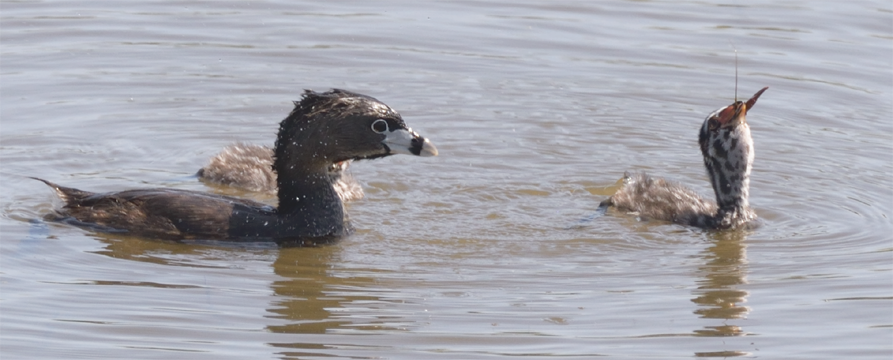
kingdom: Animalia
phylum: Chordata
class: Aves
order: Podicipediformes
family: Podicipedidae
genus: Podilymbus
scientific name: Podilymbus podiceps
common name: Pied-billed grebe
